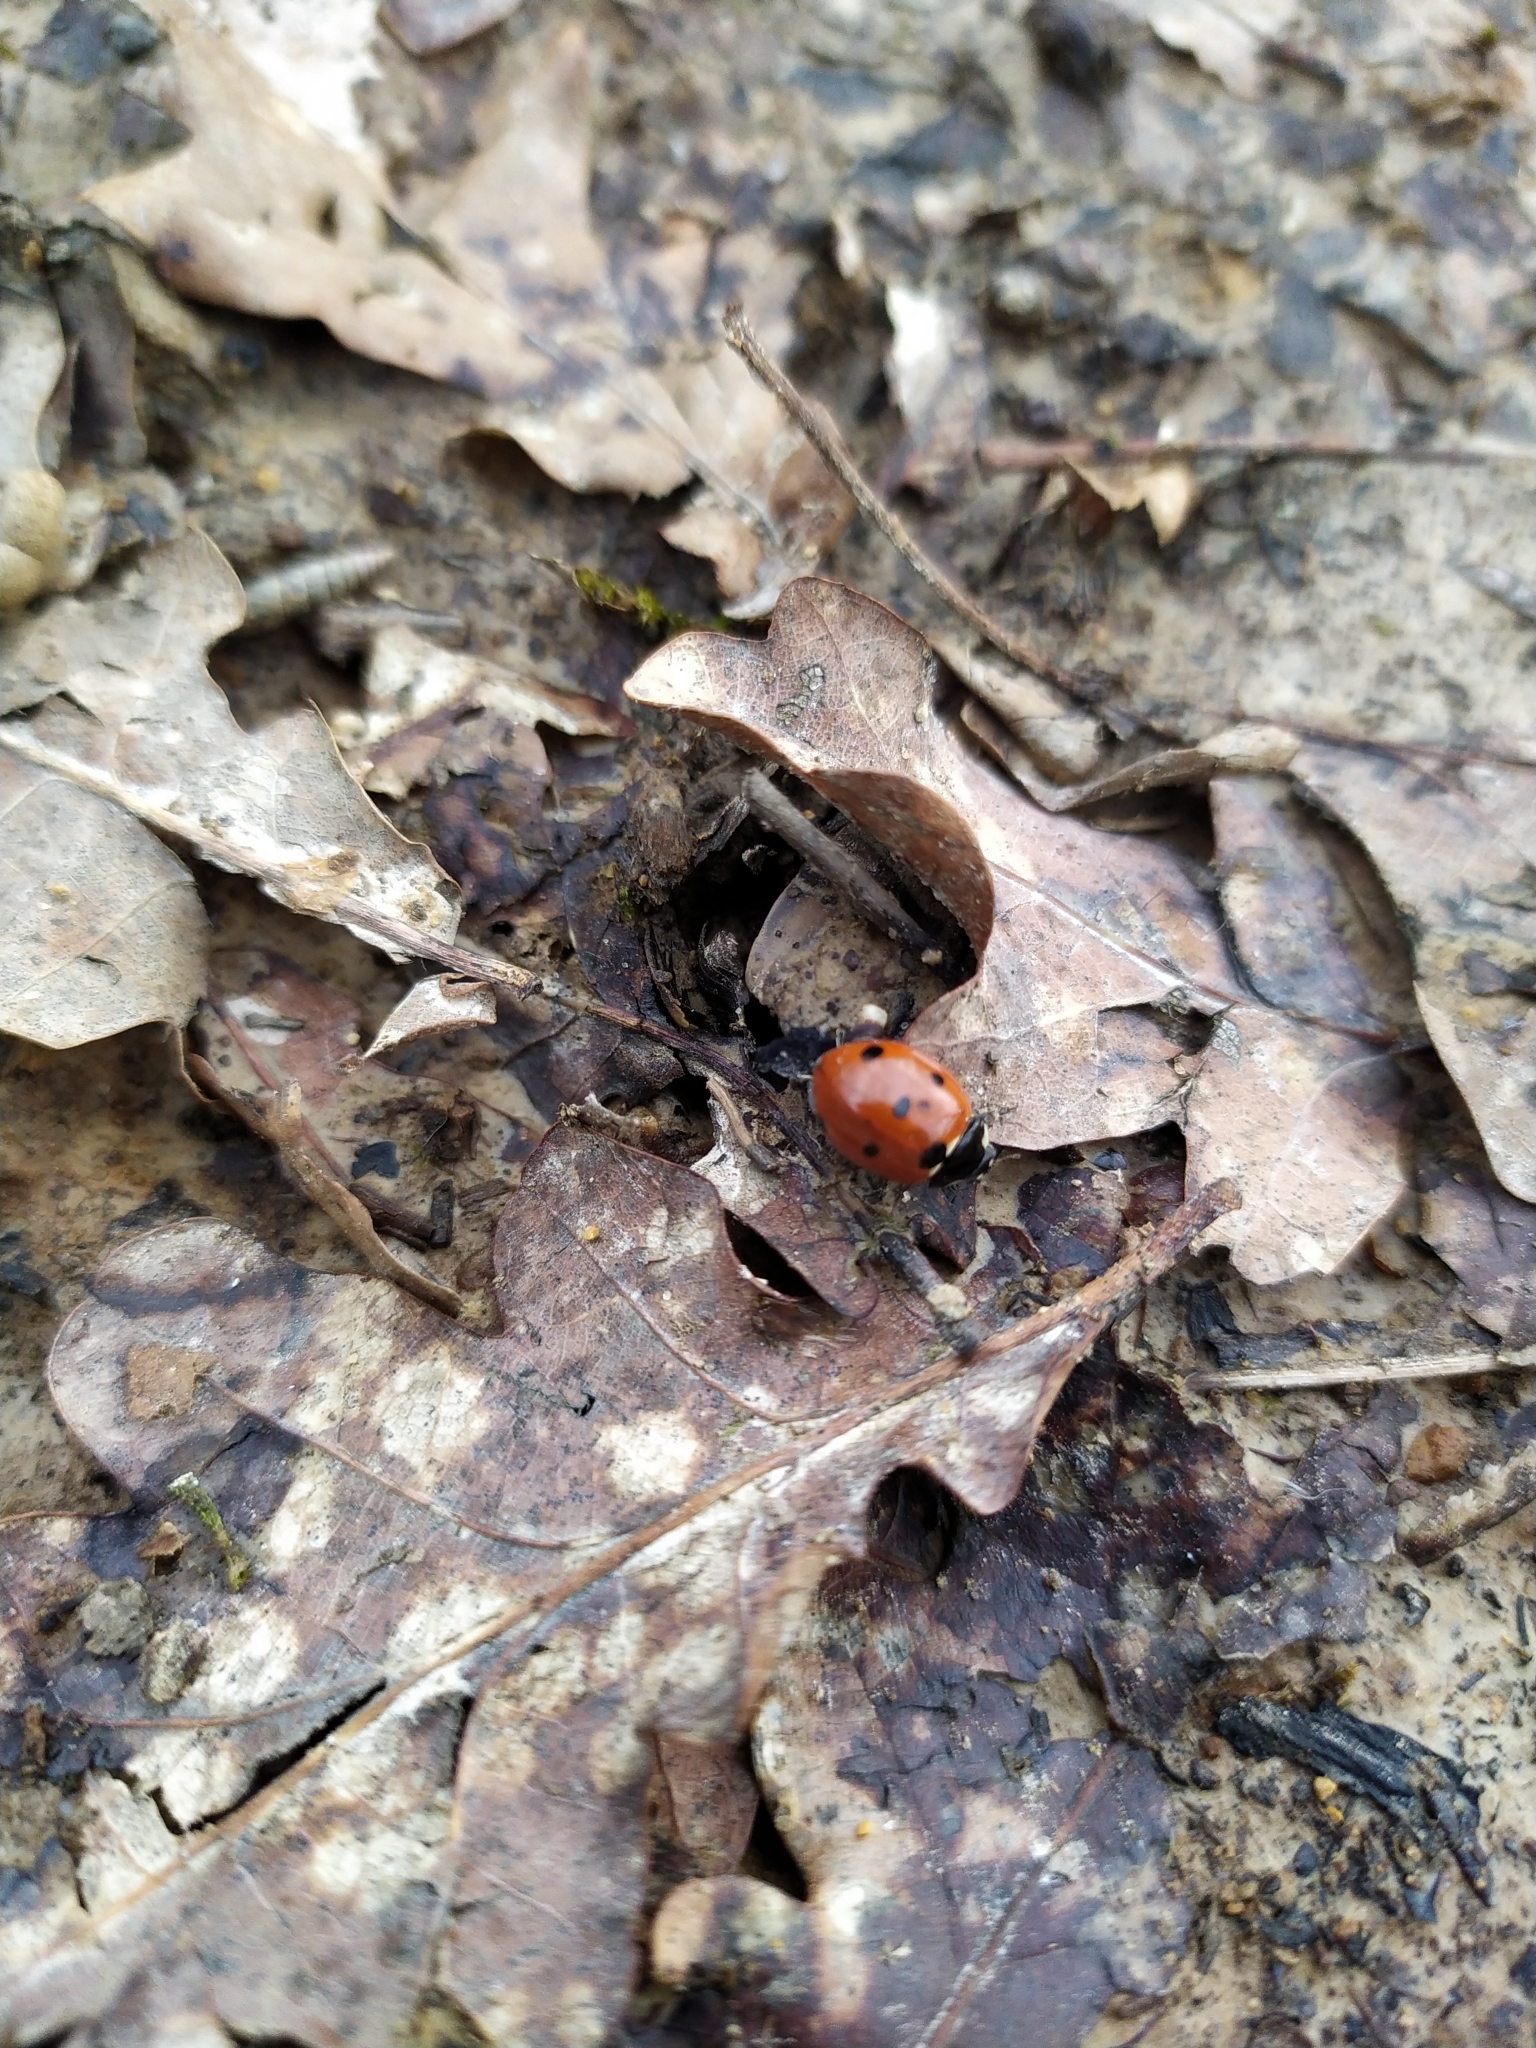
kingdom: Animalia
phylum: Arthropoda
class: Insecta
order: Coleoptera
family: Coccinellidae
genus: Coccinella
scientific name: Coccinella septempunctata
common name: Sevenspotted lady beetle
